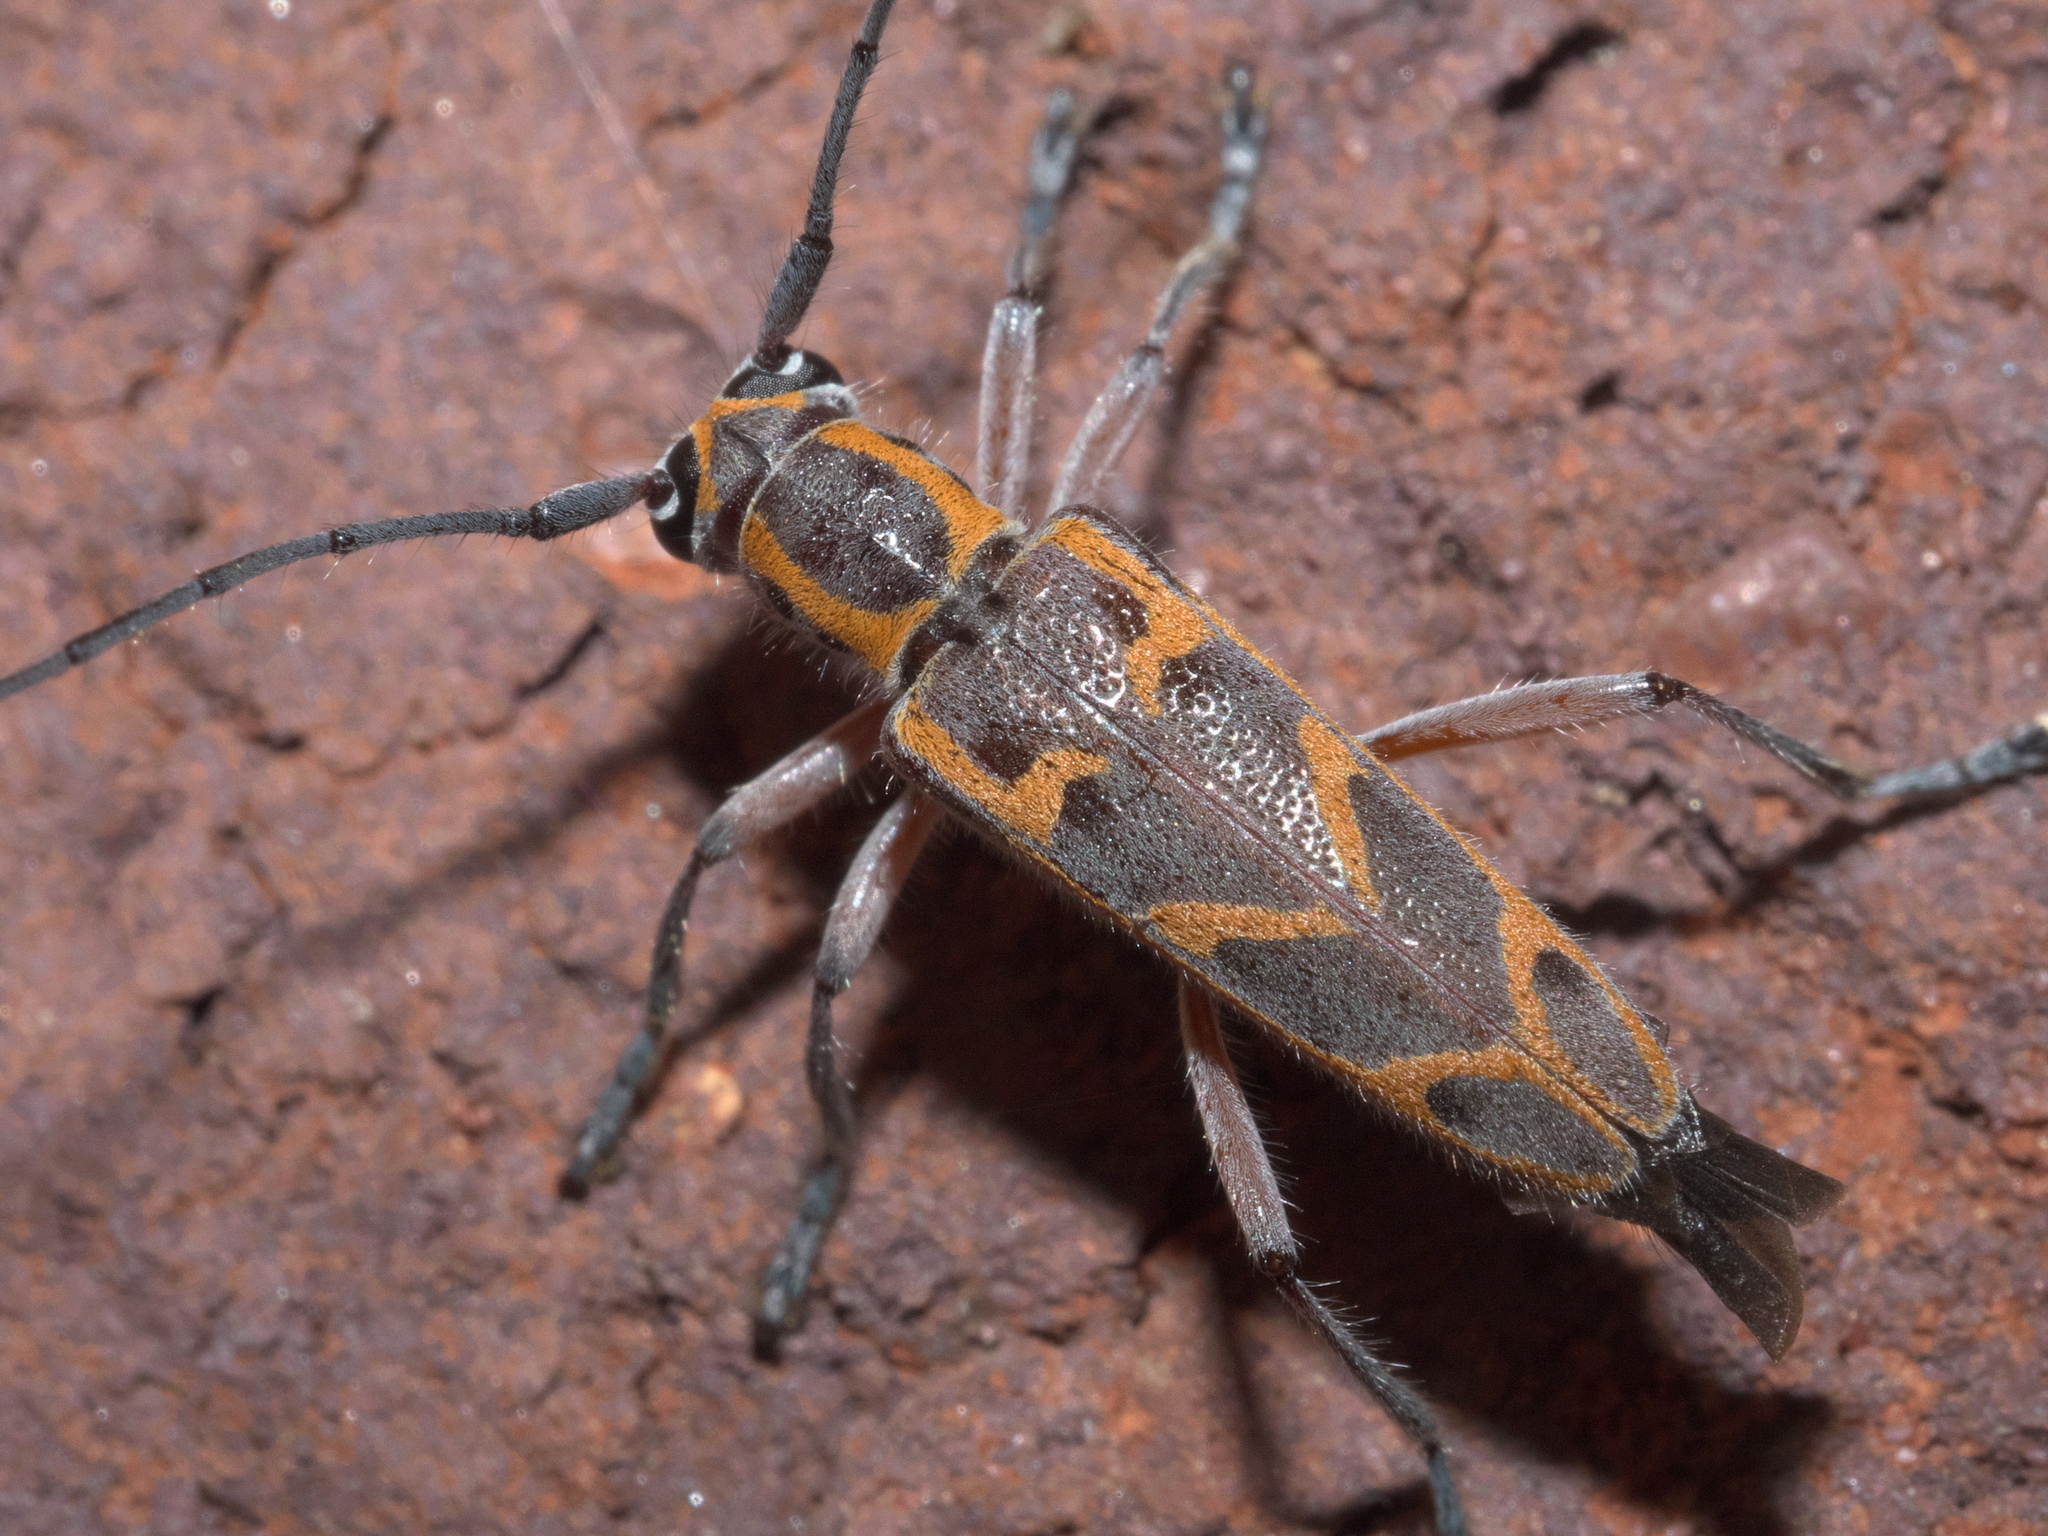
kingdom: Animalia
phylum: Arthropoda
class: Insecta
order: Coleoptera
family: Cerambycidae
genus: Saperda
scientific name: Saperda tridentata
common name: Elm borer
